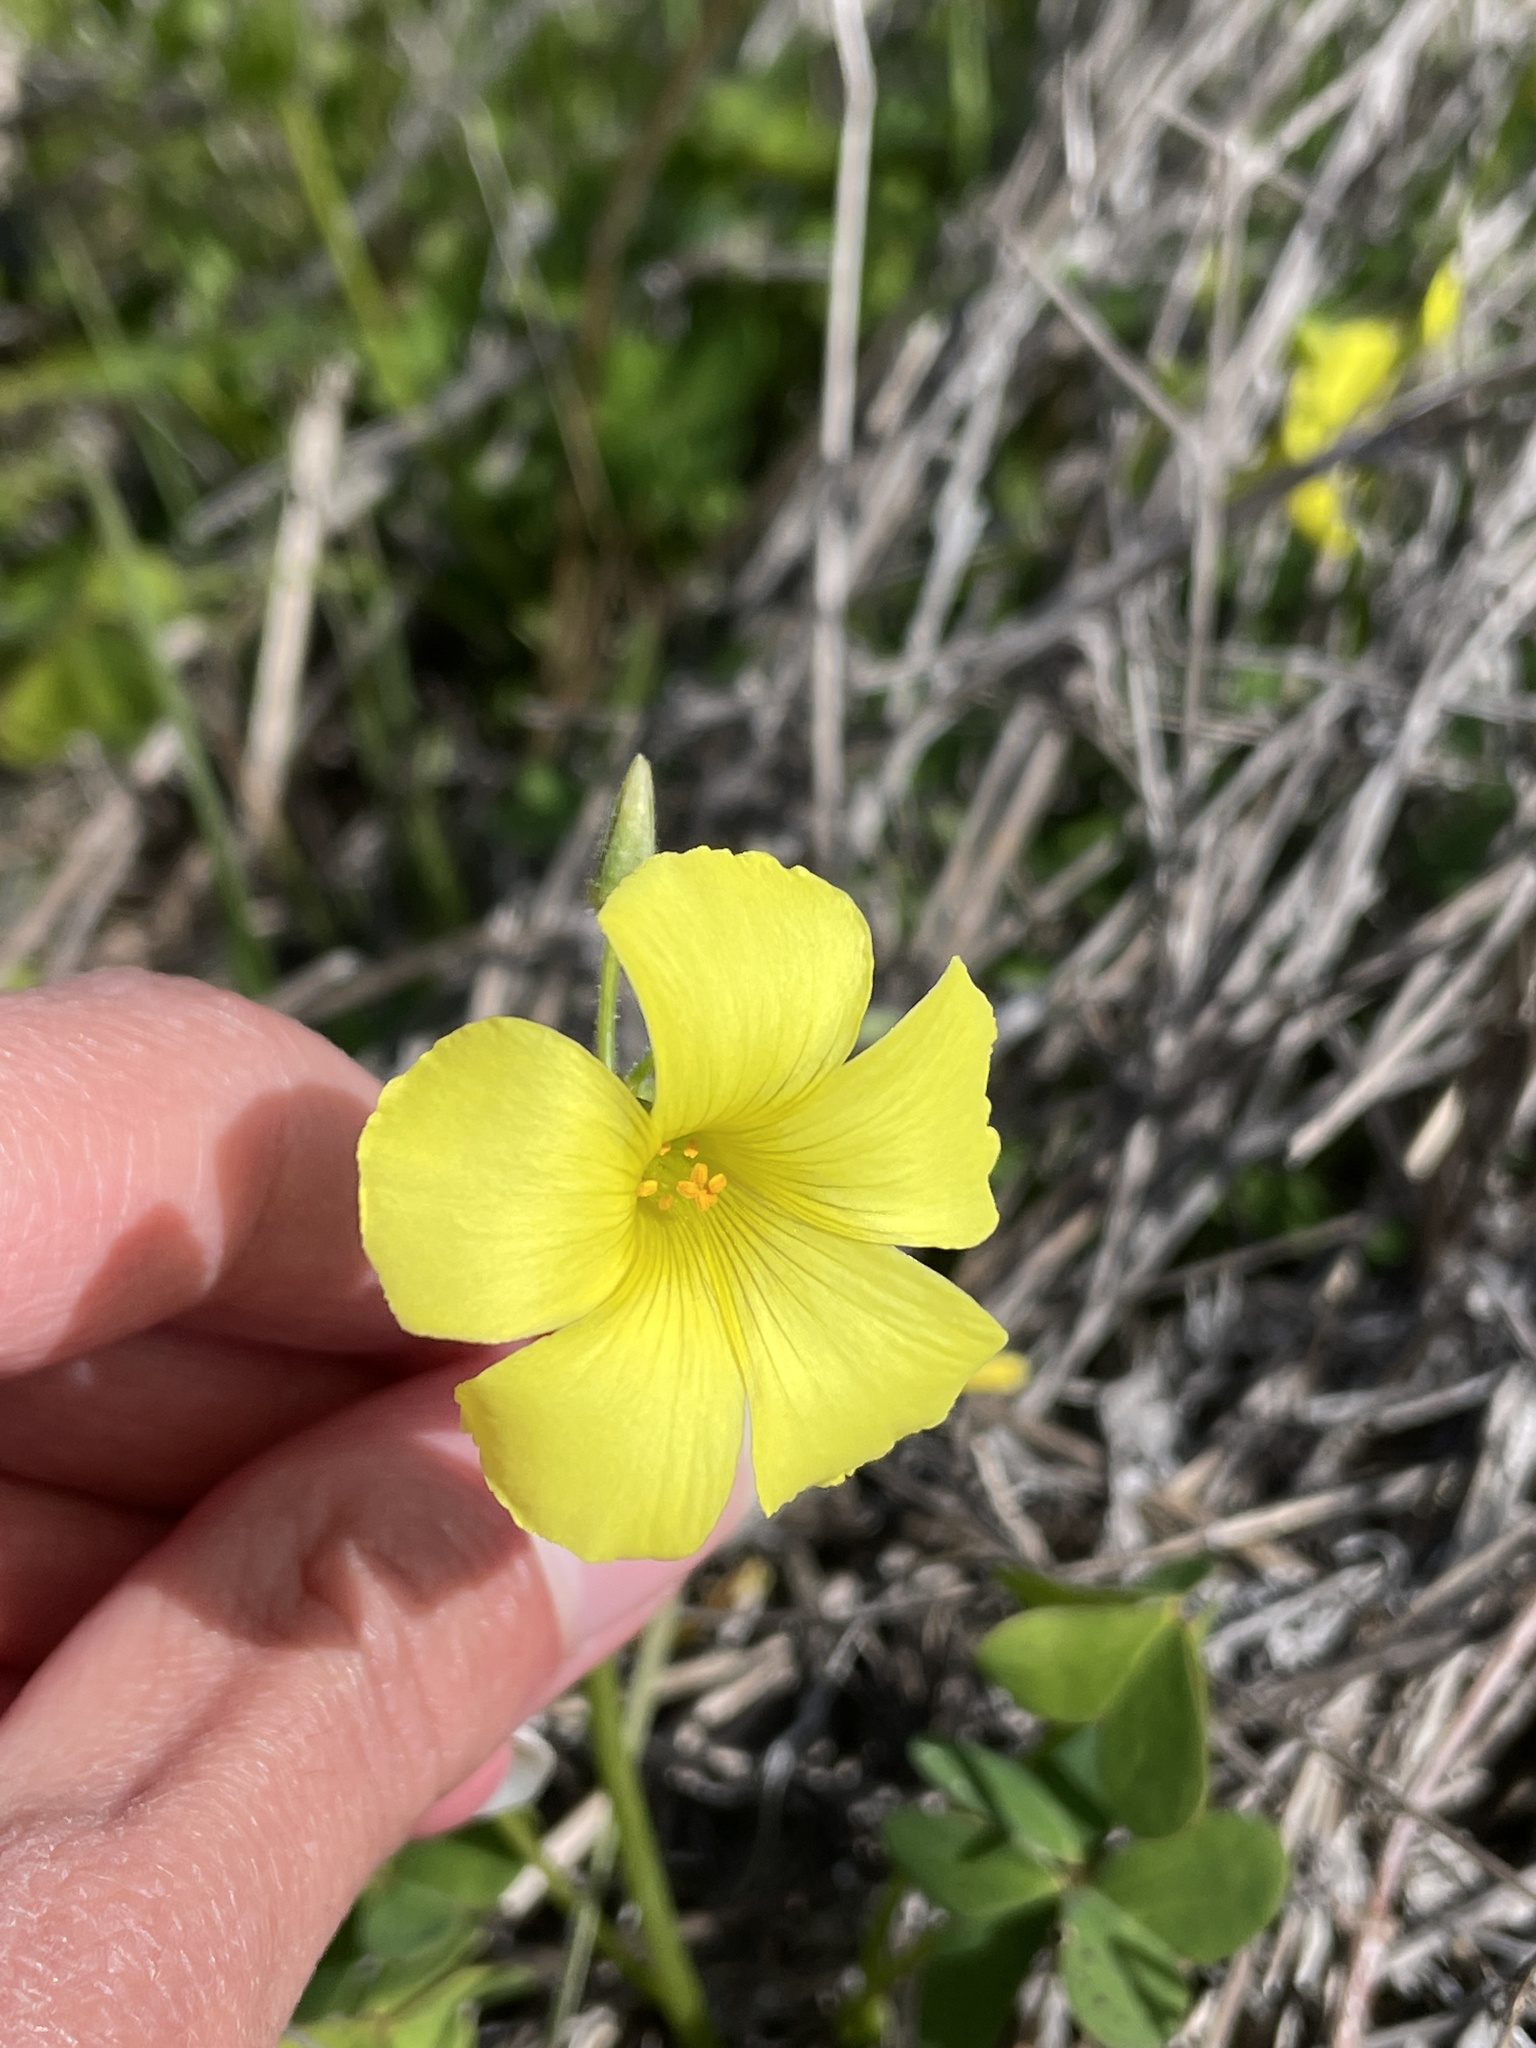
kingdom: Plantae
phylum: Tracheophyta
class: Magnoliopsida
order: Oxalidales
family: Oxalidaceae
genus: Oxalis
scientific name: Oxalis pes-caprae
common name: Bermuda-buttercup
